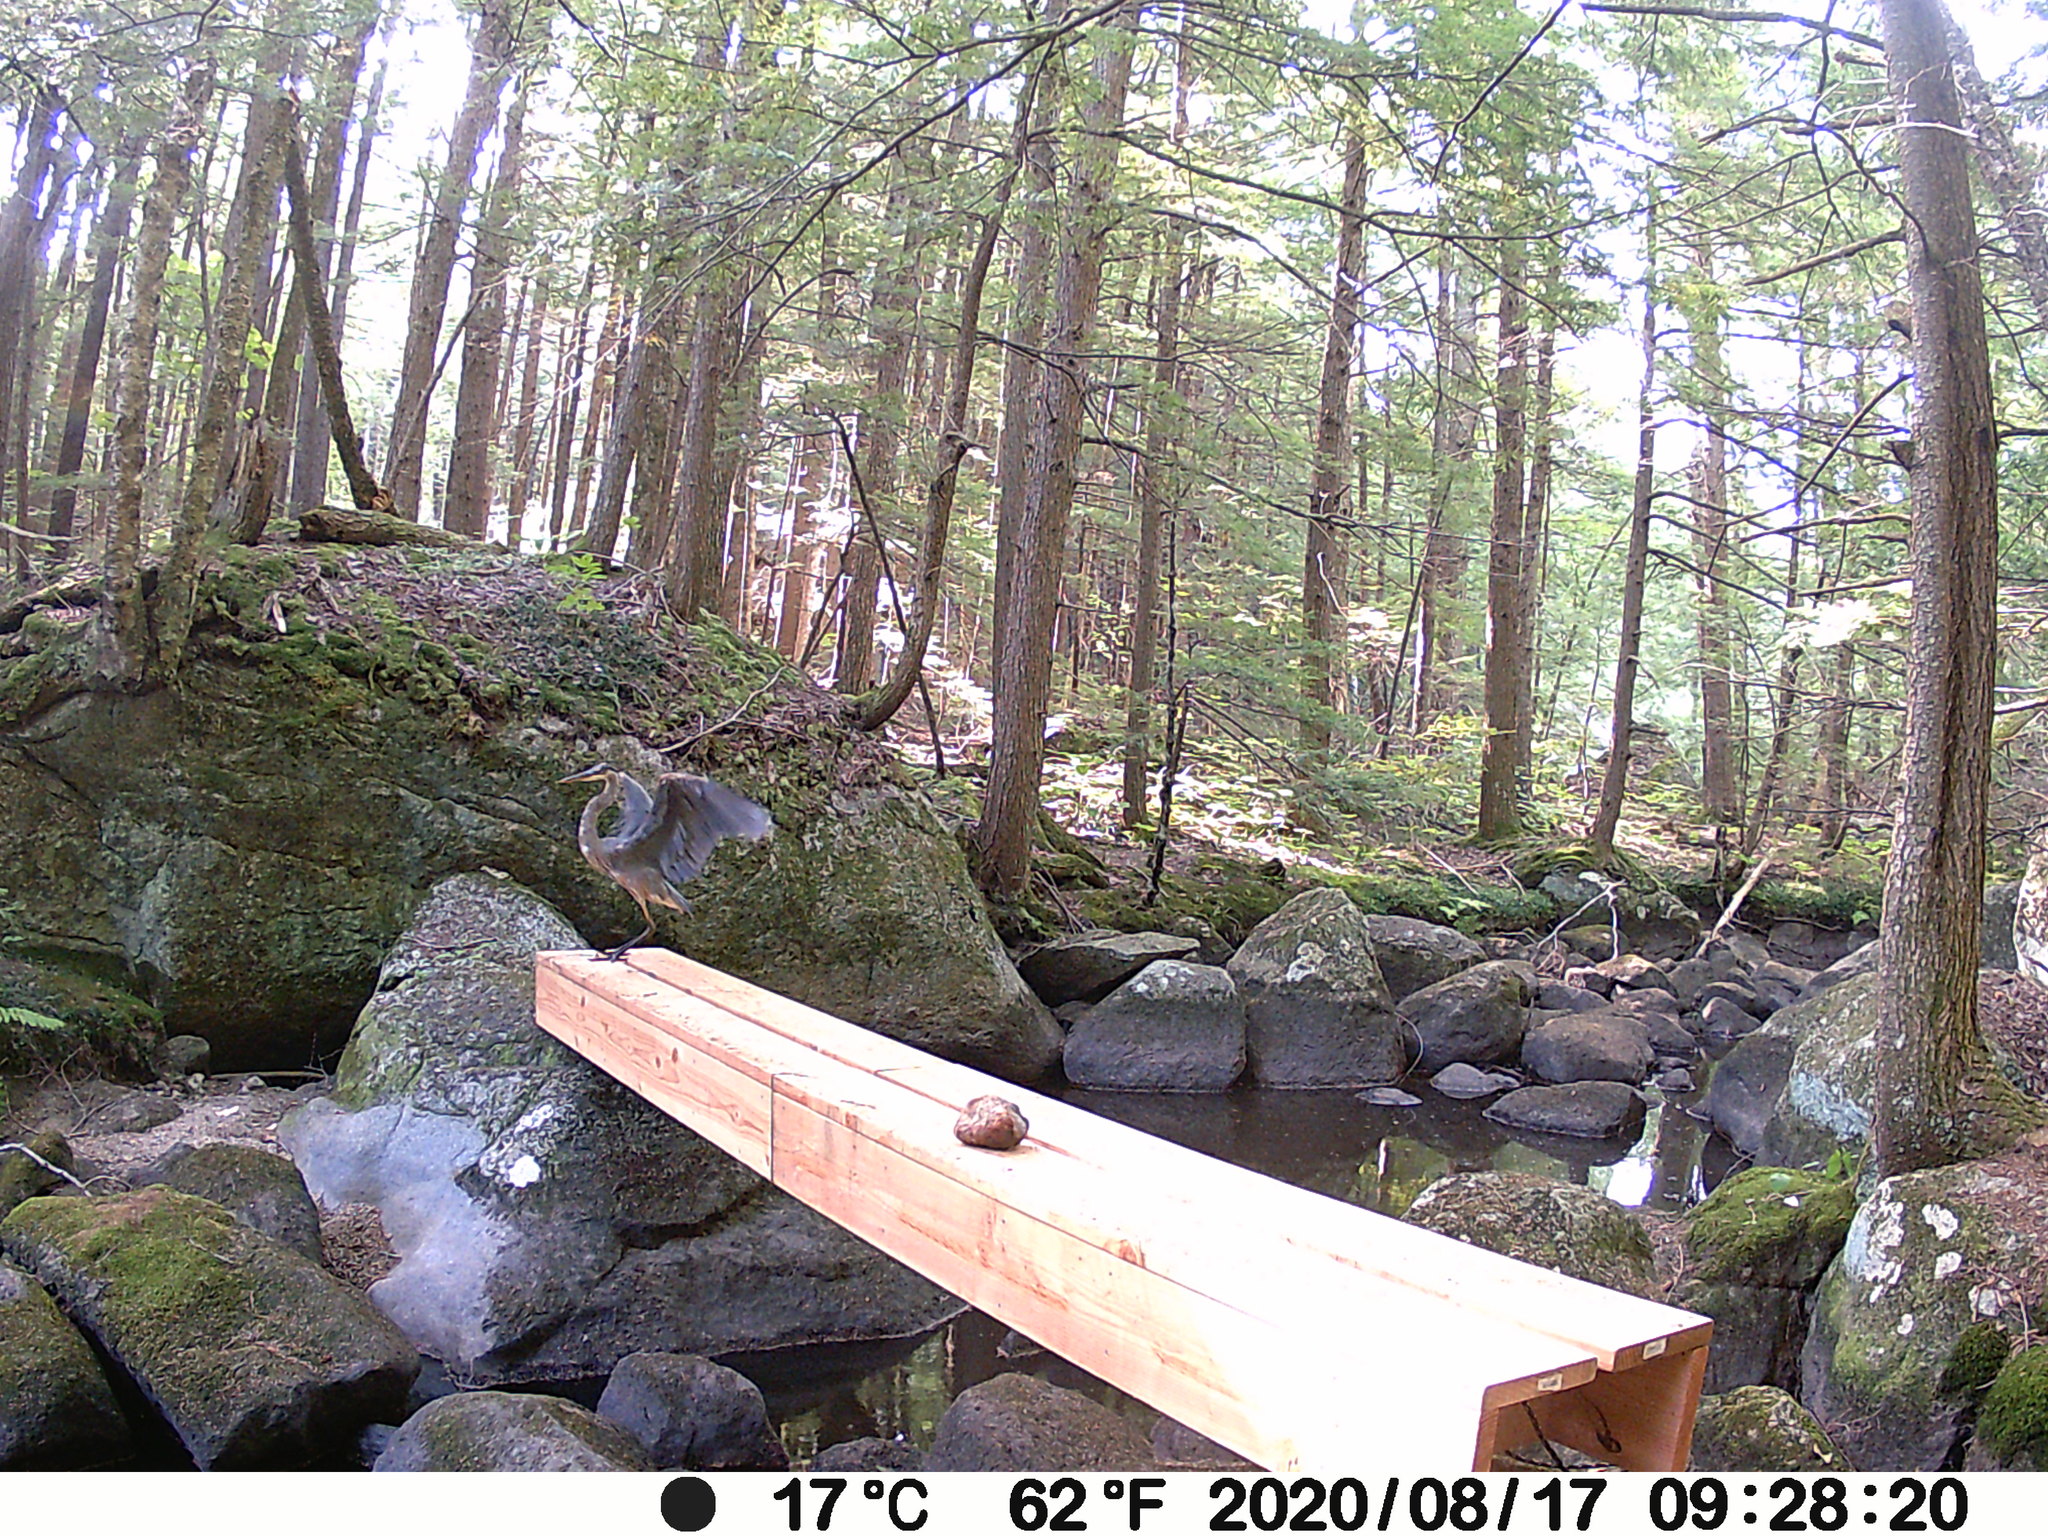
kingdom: Animalia
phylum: Chordata
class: Aves
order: Pelecaniformes
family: Ardeidae
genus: Ardea
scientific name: Ardea herodias
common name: Great blue heron
